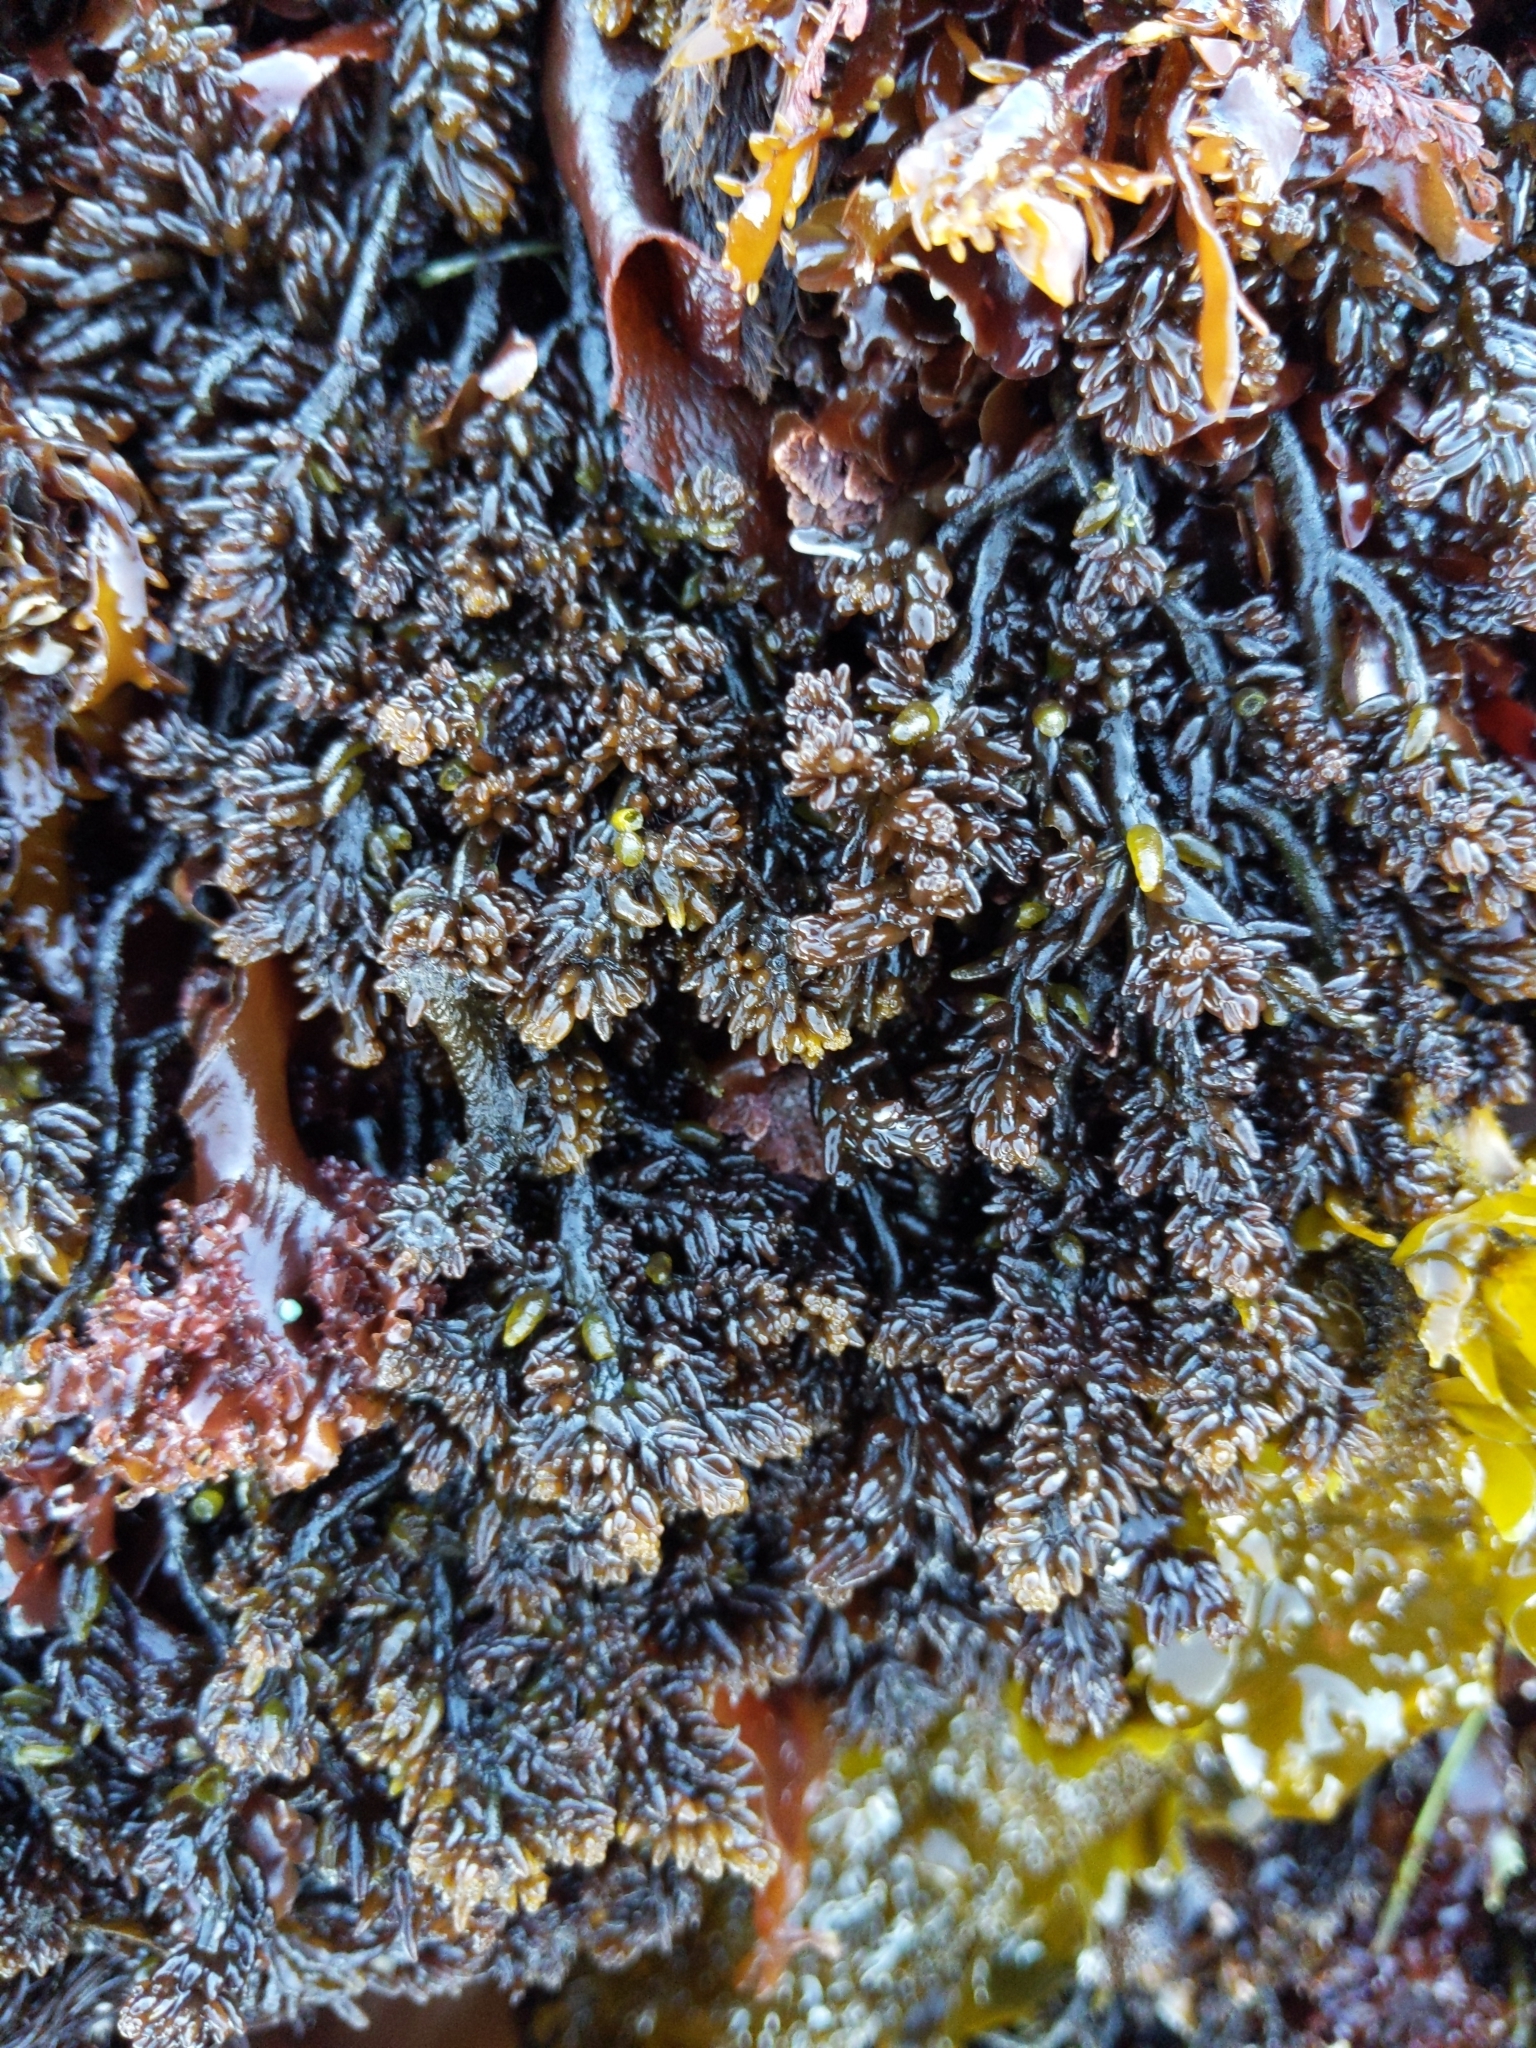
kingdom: Plantae
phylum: Rhodophyta
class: Florideophyceae
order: Rhodymeniales
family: Champiaceae
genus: Neogastroclonium
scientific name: Neogastroclonium subarticulatum
